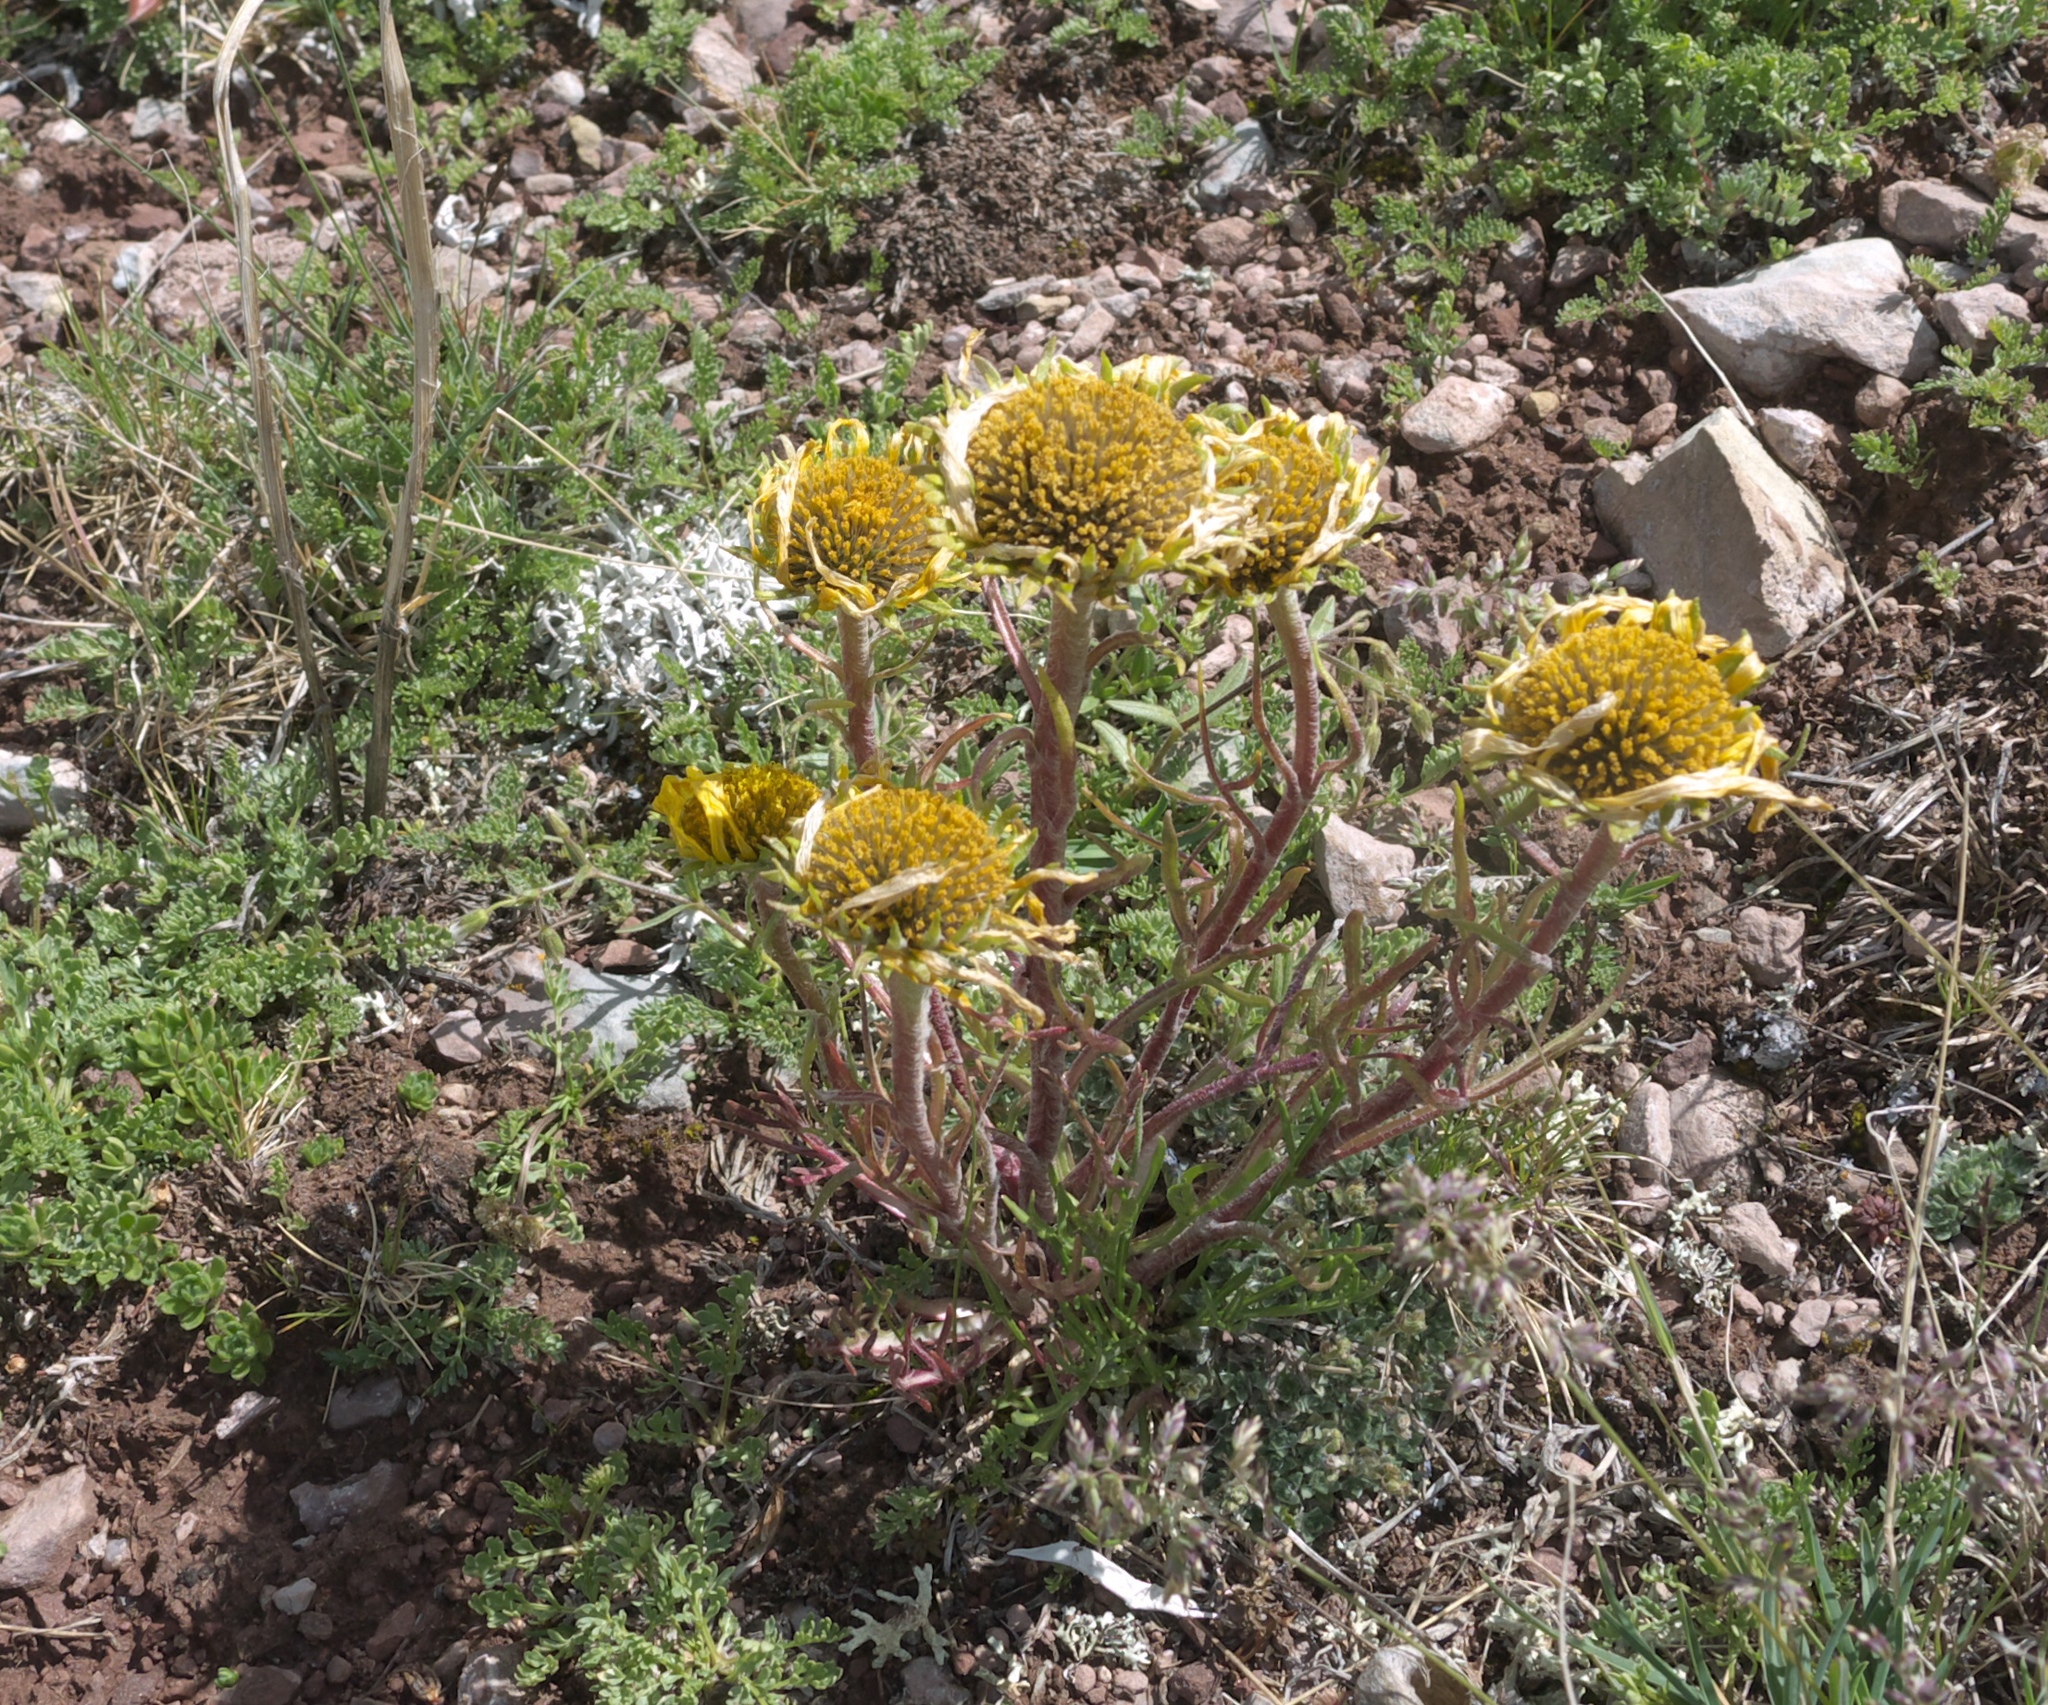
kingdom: Plantae
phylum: Tracheophyta
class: Magnoliopsida
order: Asterales
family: Asteraceae
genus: Hymenoxys
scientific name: Hymenoxys grandiflora
